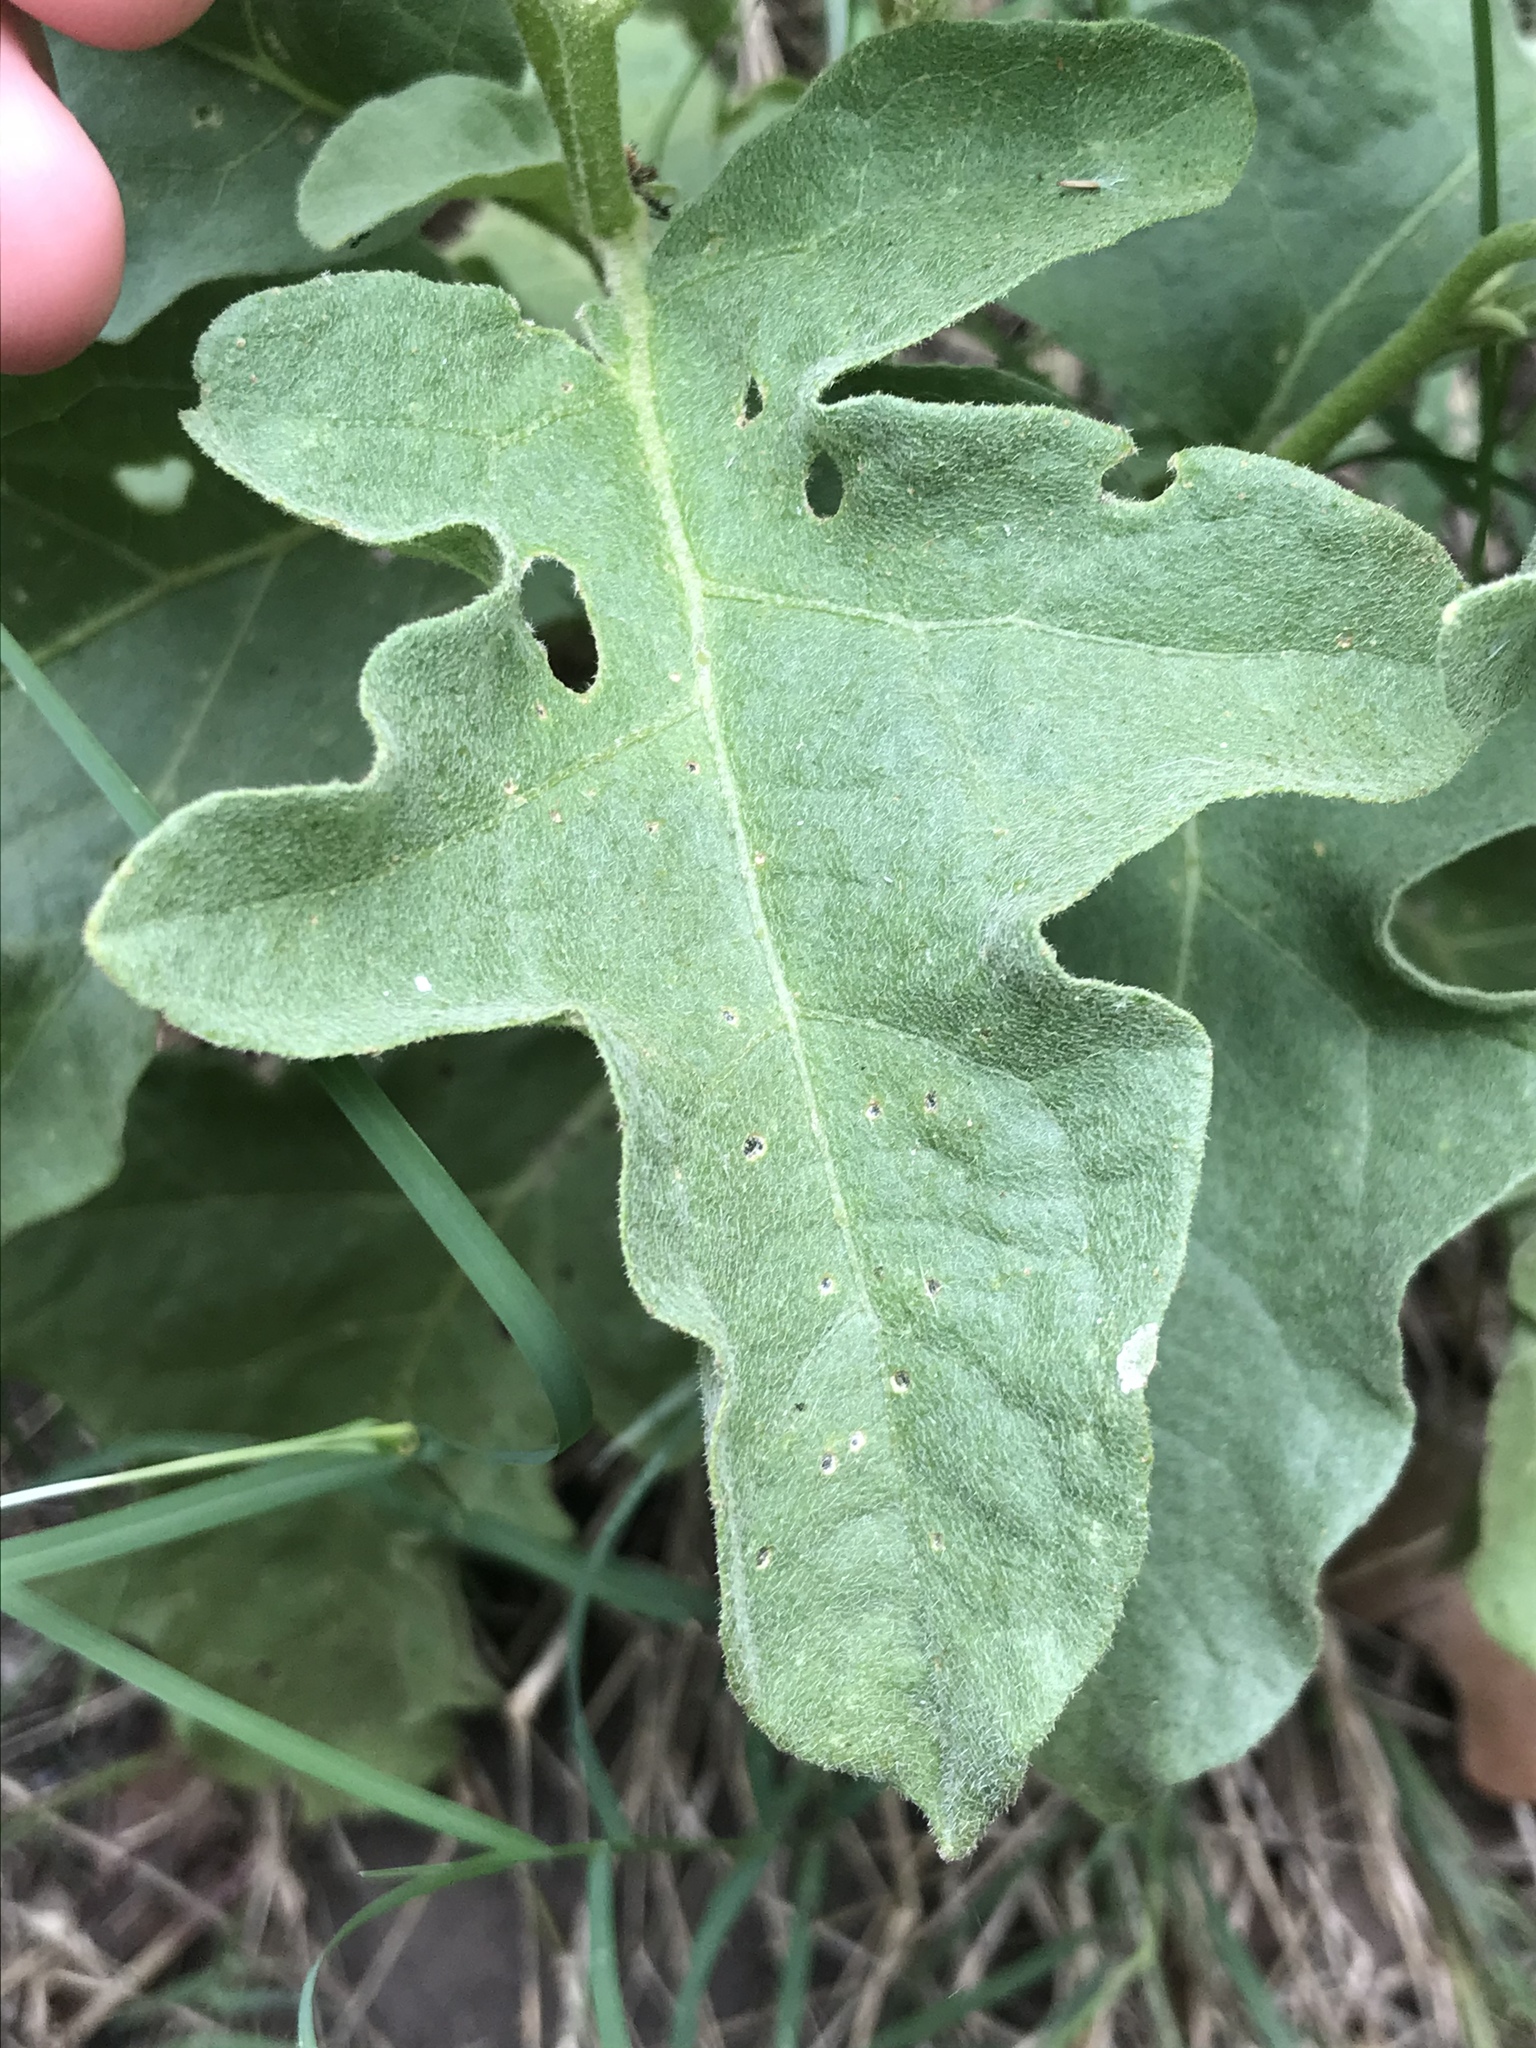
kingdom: Plantae
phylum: Tracheophyta
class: Magnoliopsida
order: Solanales
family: Solanaceae
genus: Solanum
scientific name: Solanum dimidiatum
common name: Carolina horse-nettle
